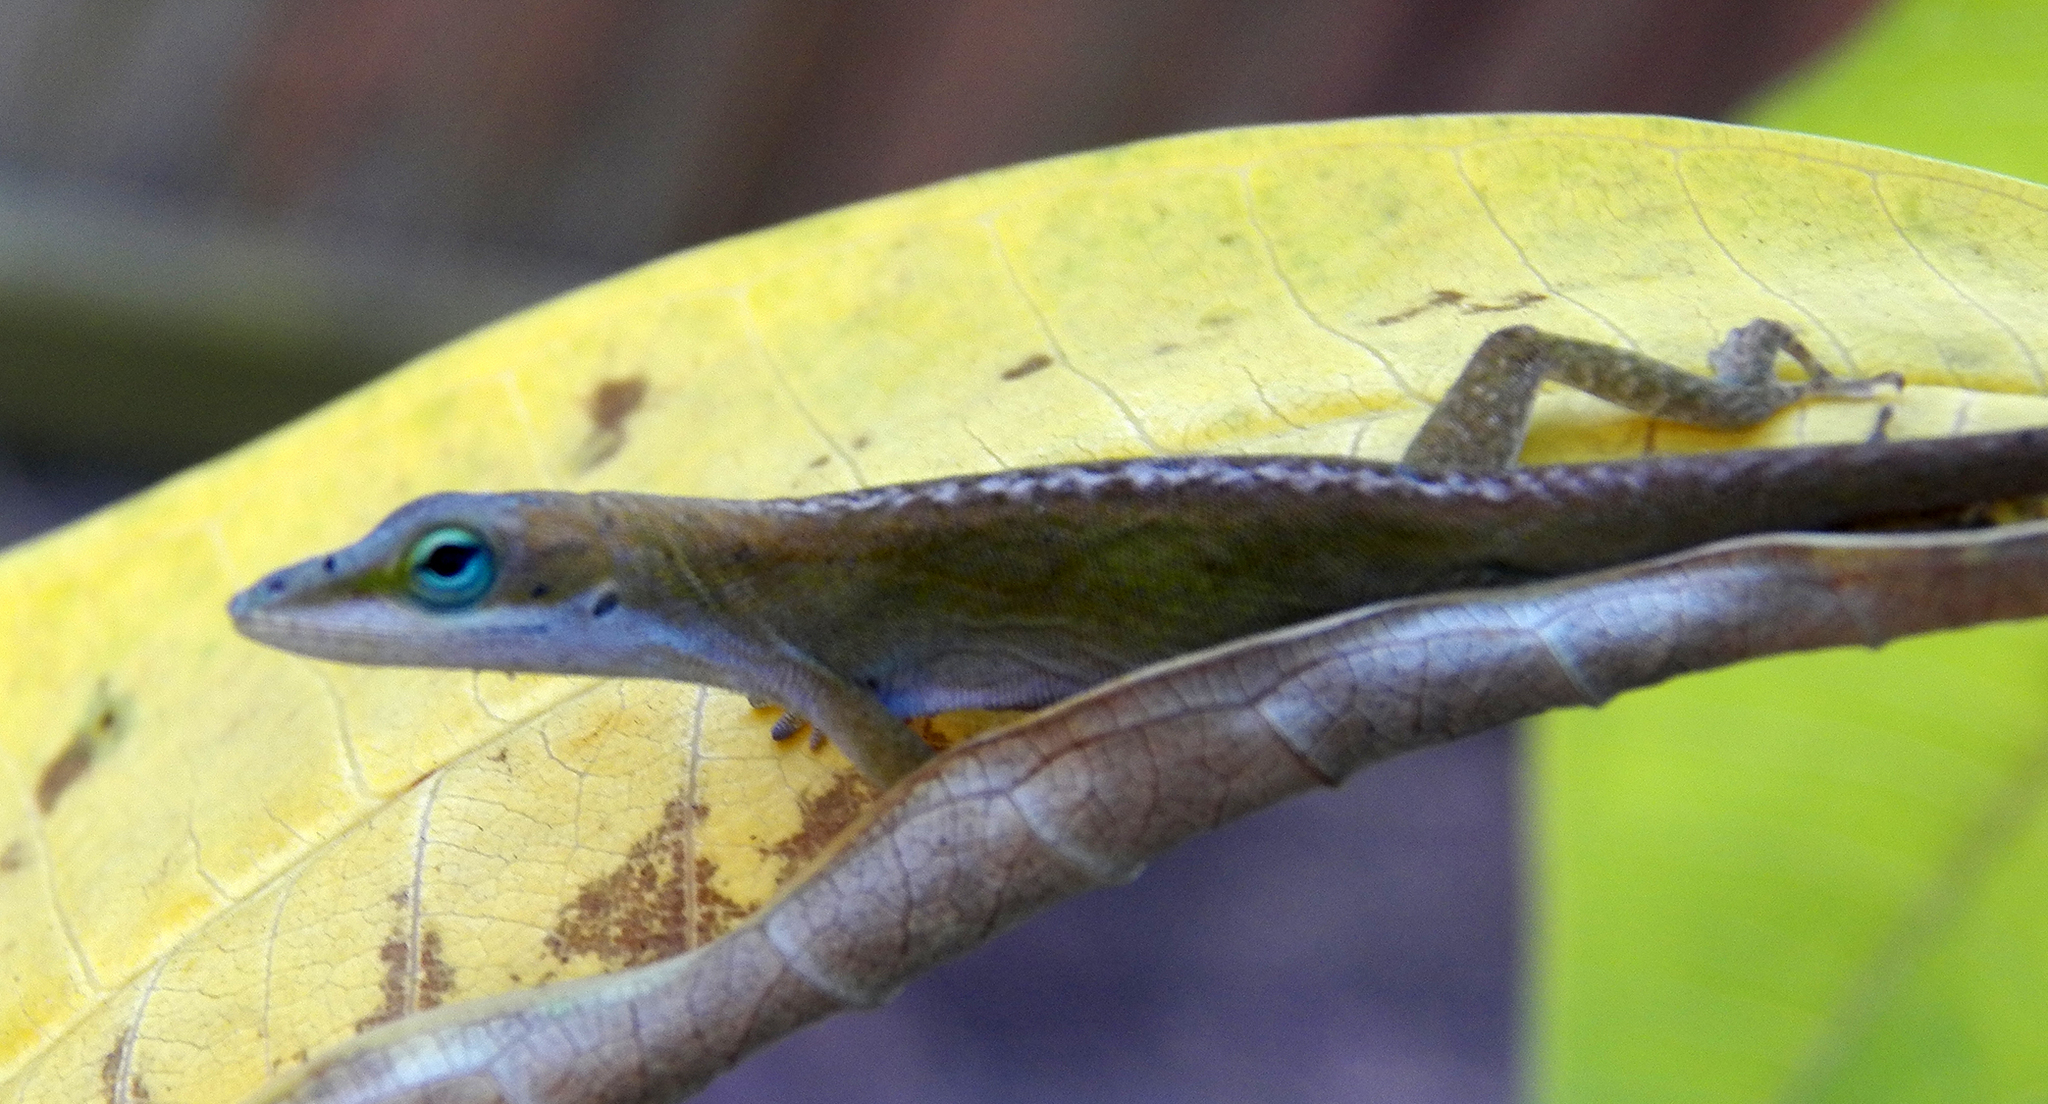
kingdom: Animalia
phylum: Chordata
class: Squamata
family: Dactyloidae
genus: Anolis
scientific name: Anolis carolinensis
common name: Green anole
